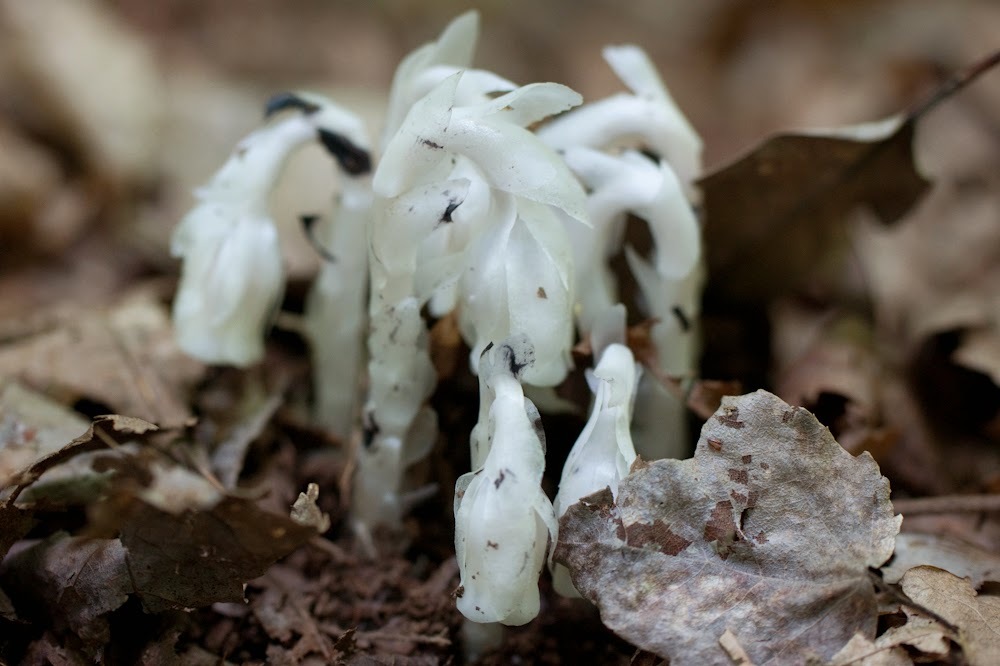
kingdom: Plantae
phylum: Tracheophyta
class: Magnoliopsida
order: Ericales
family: Ericaceae
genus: Monotropa
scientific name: Monotropa uniflora
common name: Convulsion root
